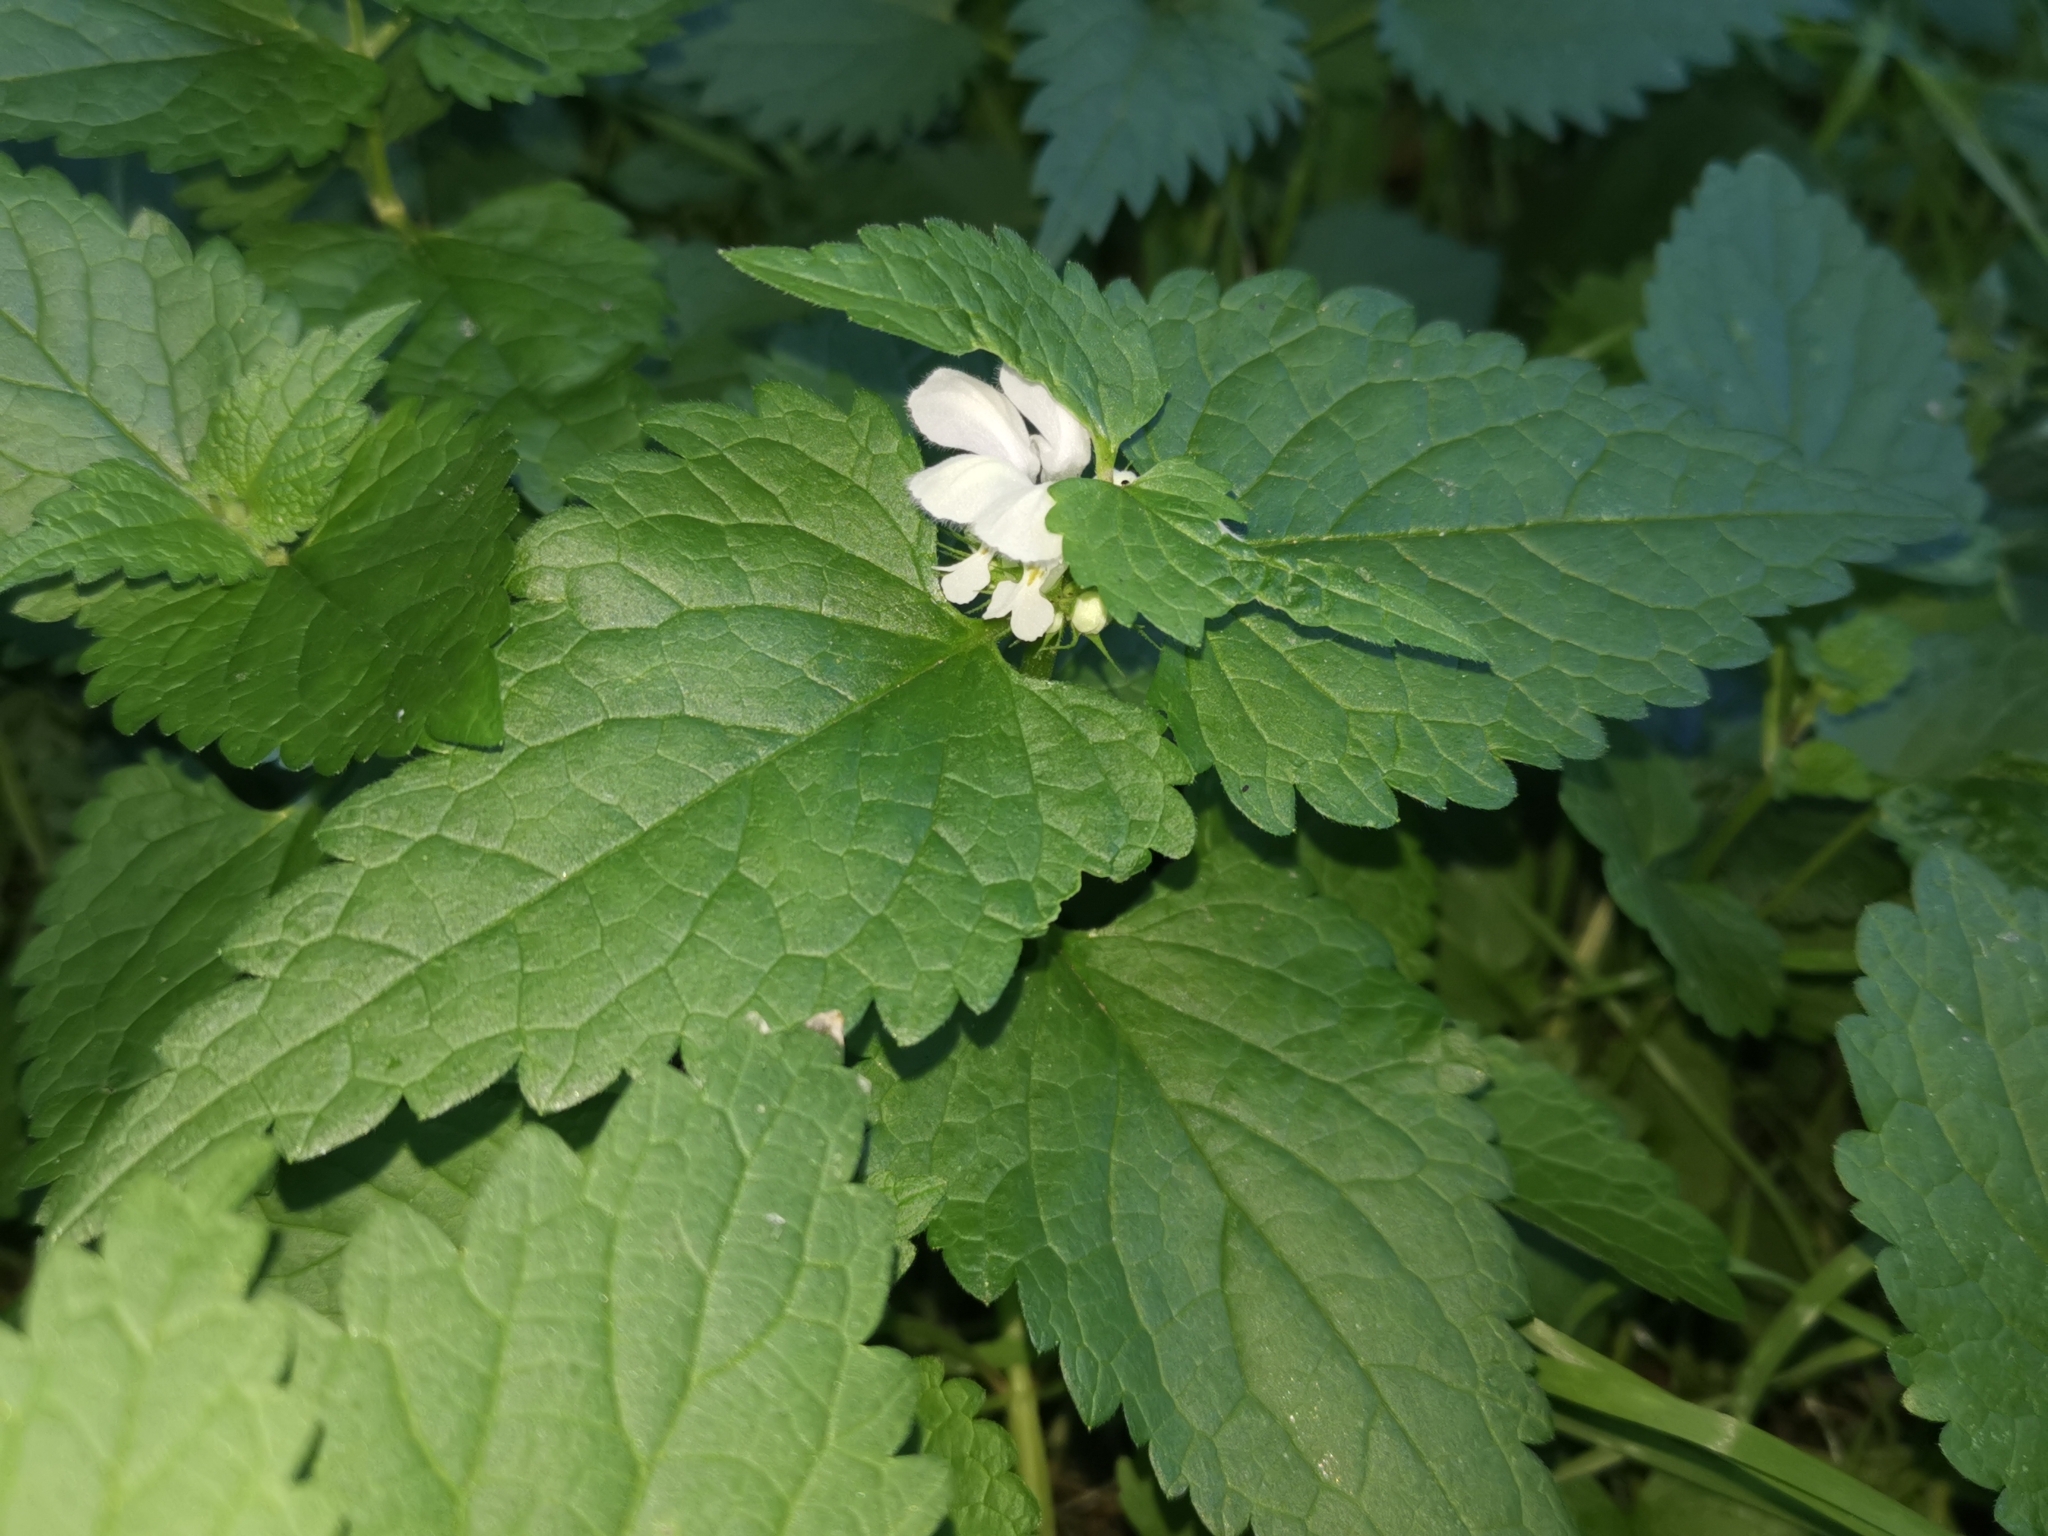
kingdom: Plantae
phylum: Tracheophyta
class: Magnoliopsida
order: Lamiales
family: Lamiaceae
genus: Lamium
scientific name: Lamium album
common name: White dead-nettle
